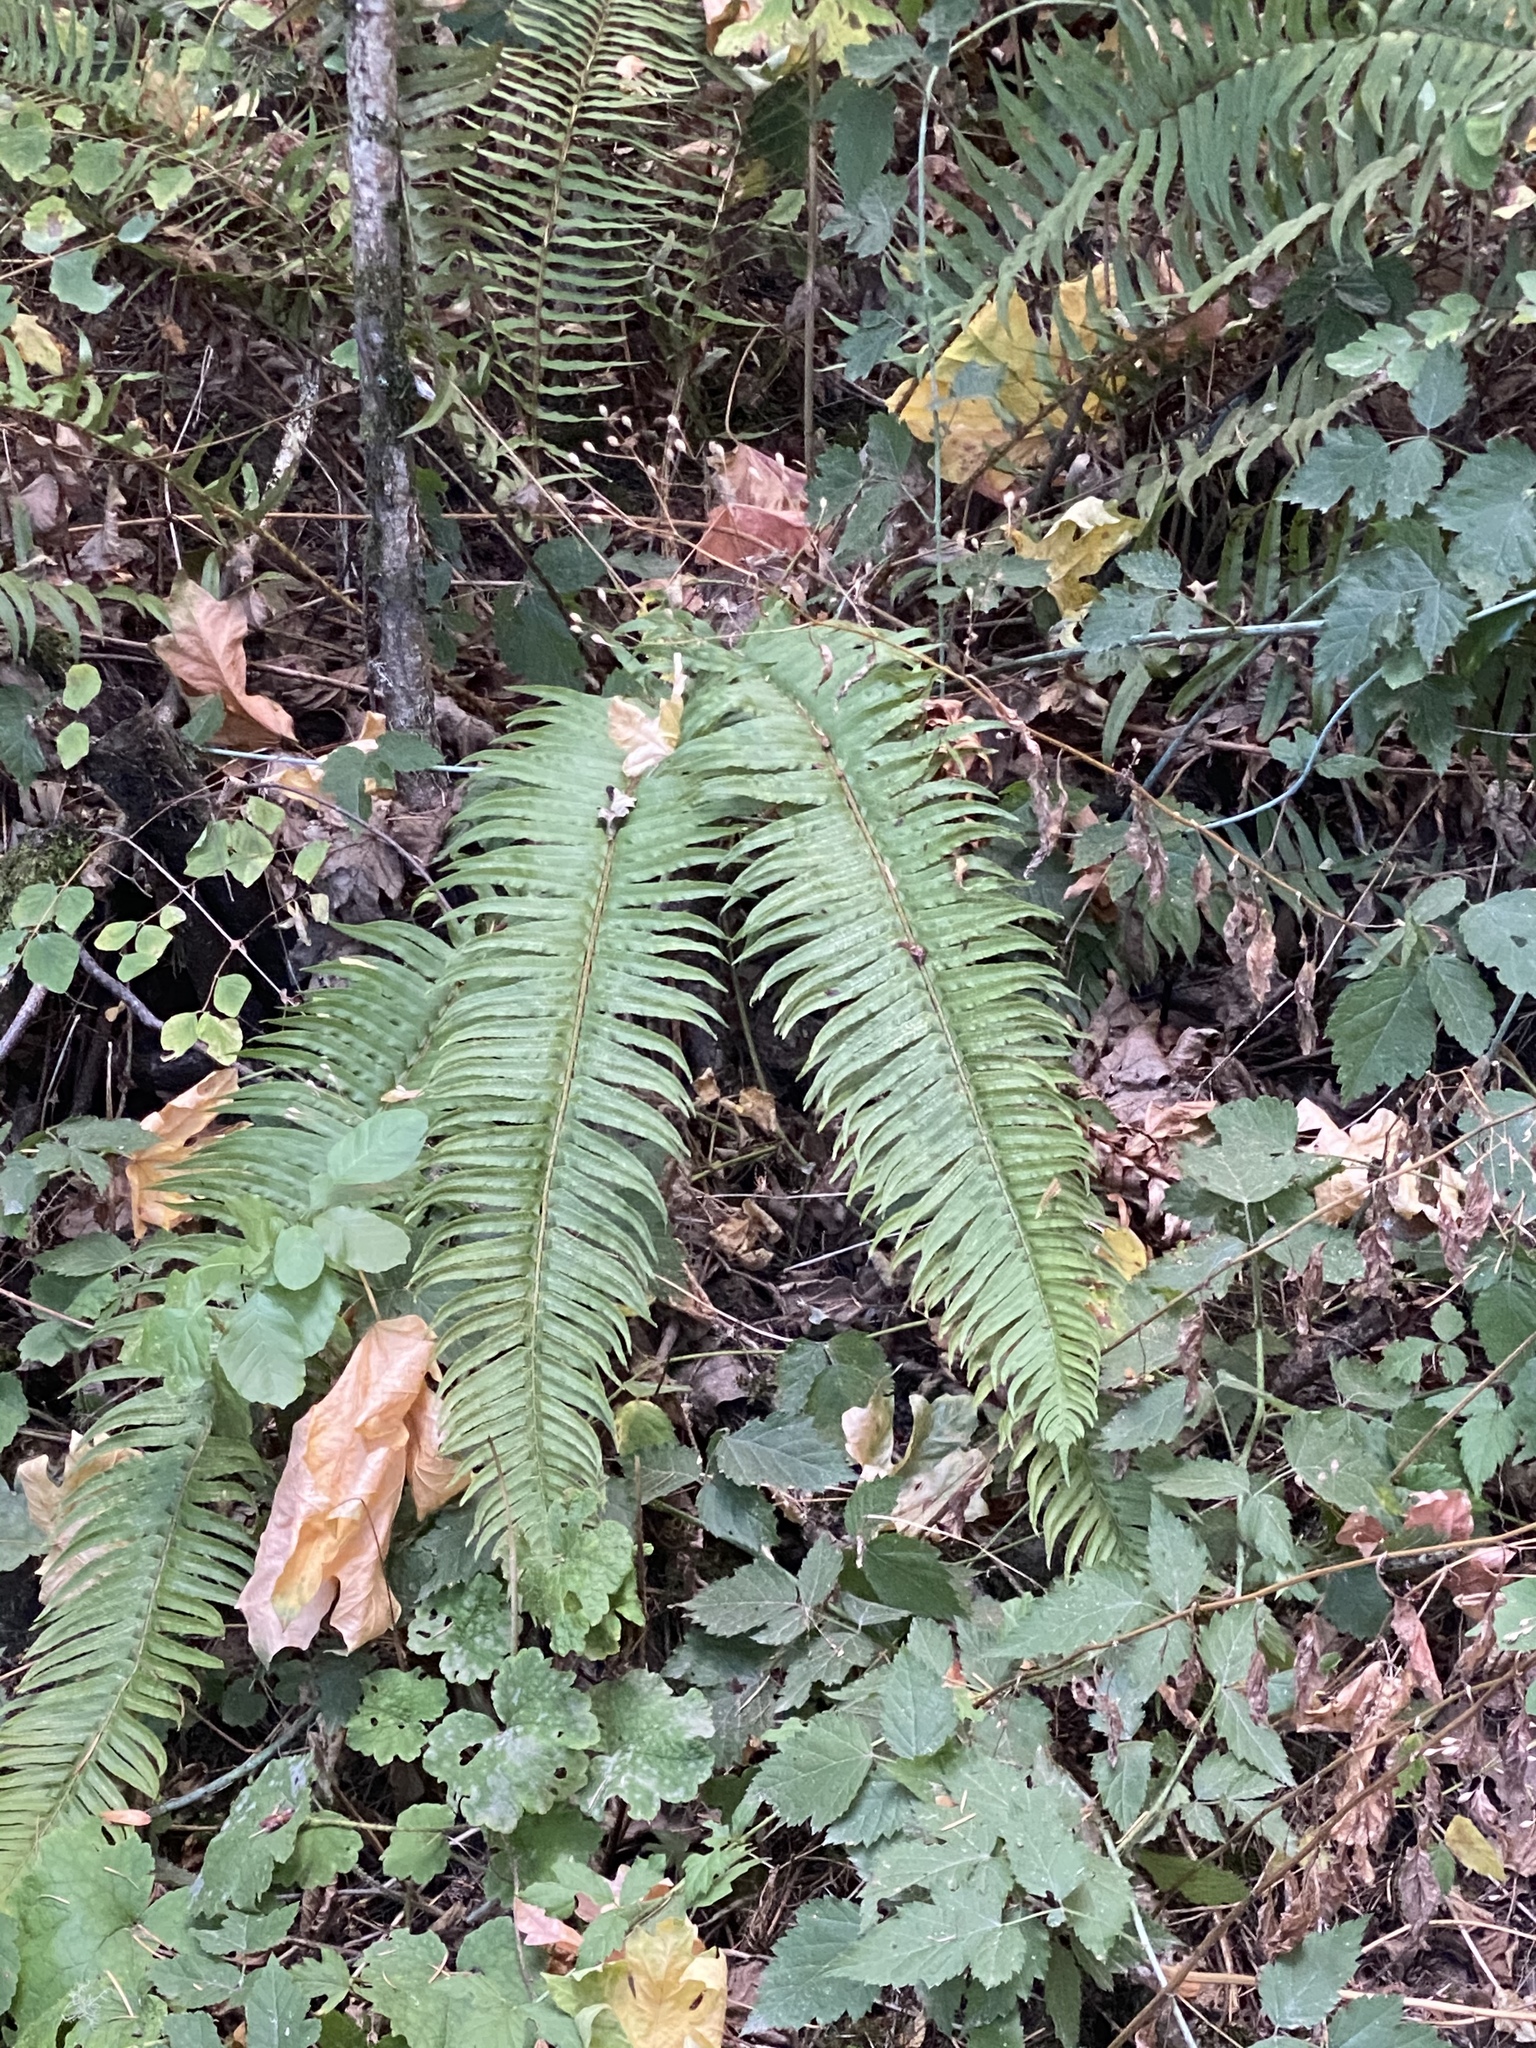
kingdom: Plantae
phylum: Tracheophyta
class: Polypodiopsida
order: Polypodiales
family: Dryopteridaceae
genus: Polystichum
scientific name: Polystichum munitum
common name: Western sword-fern
